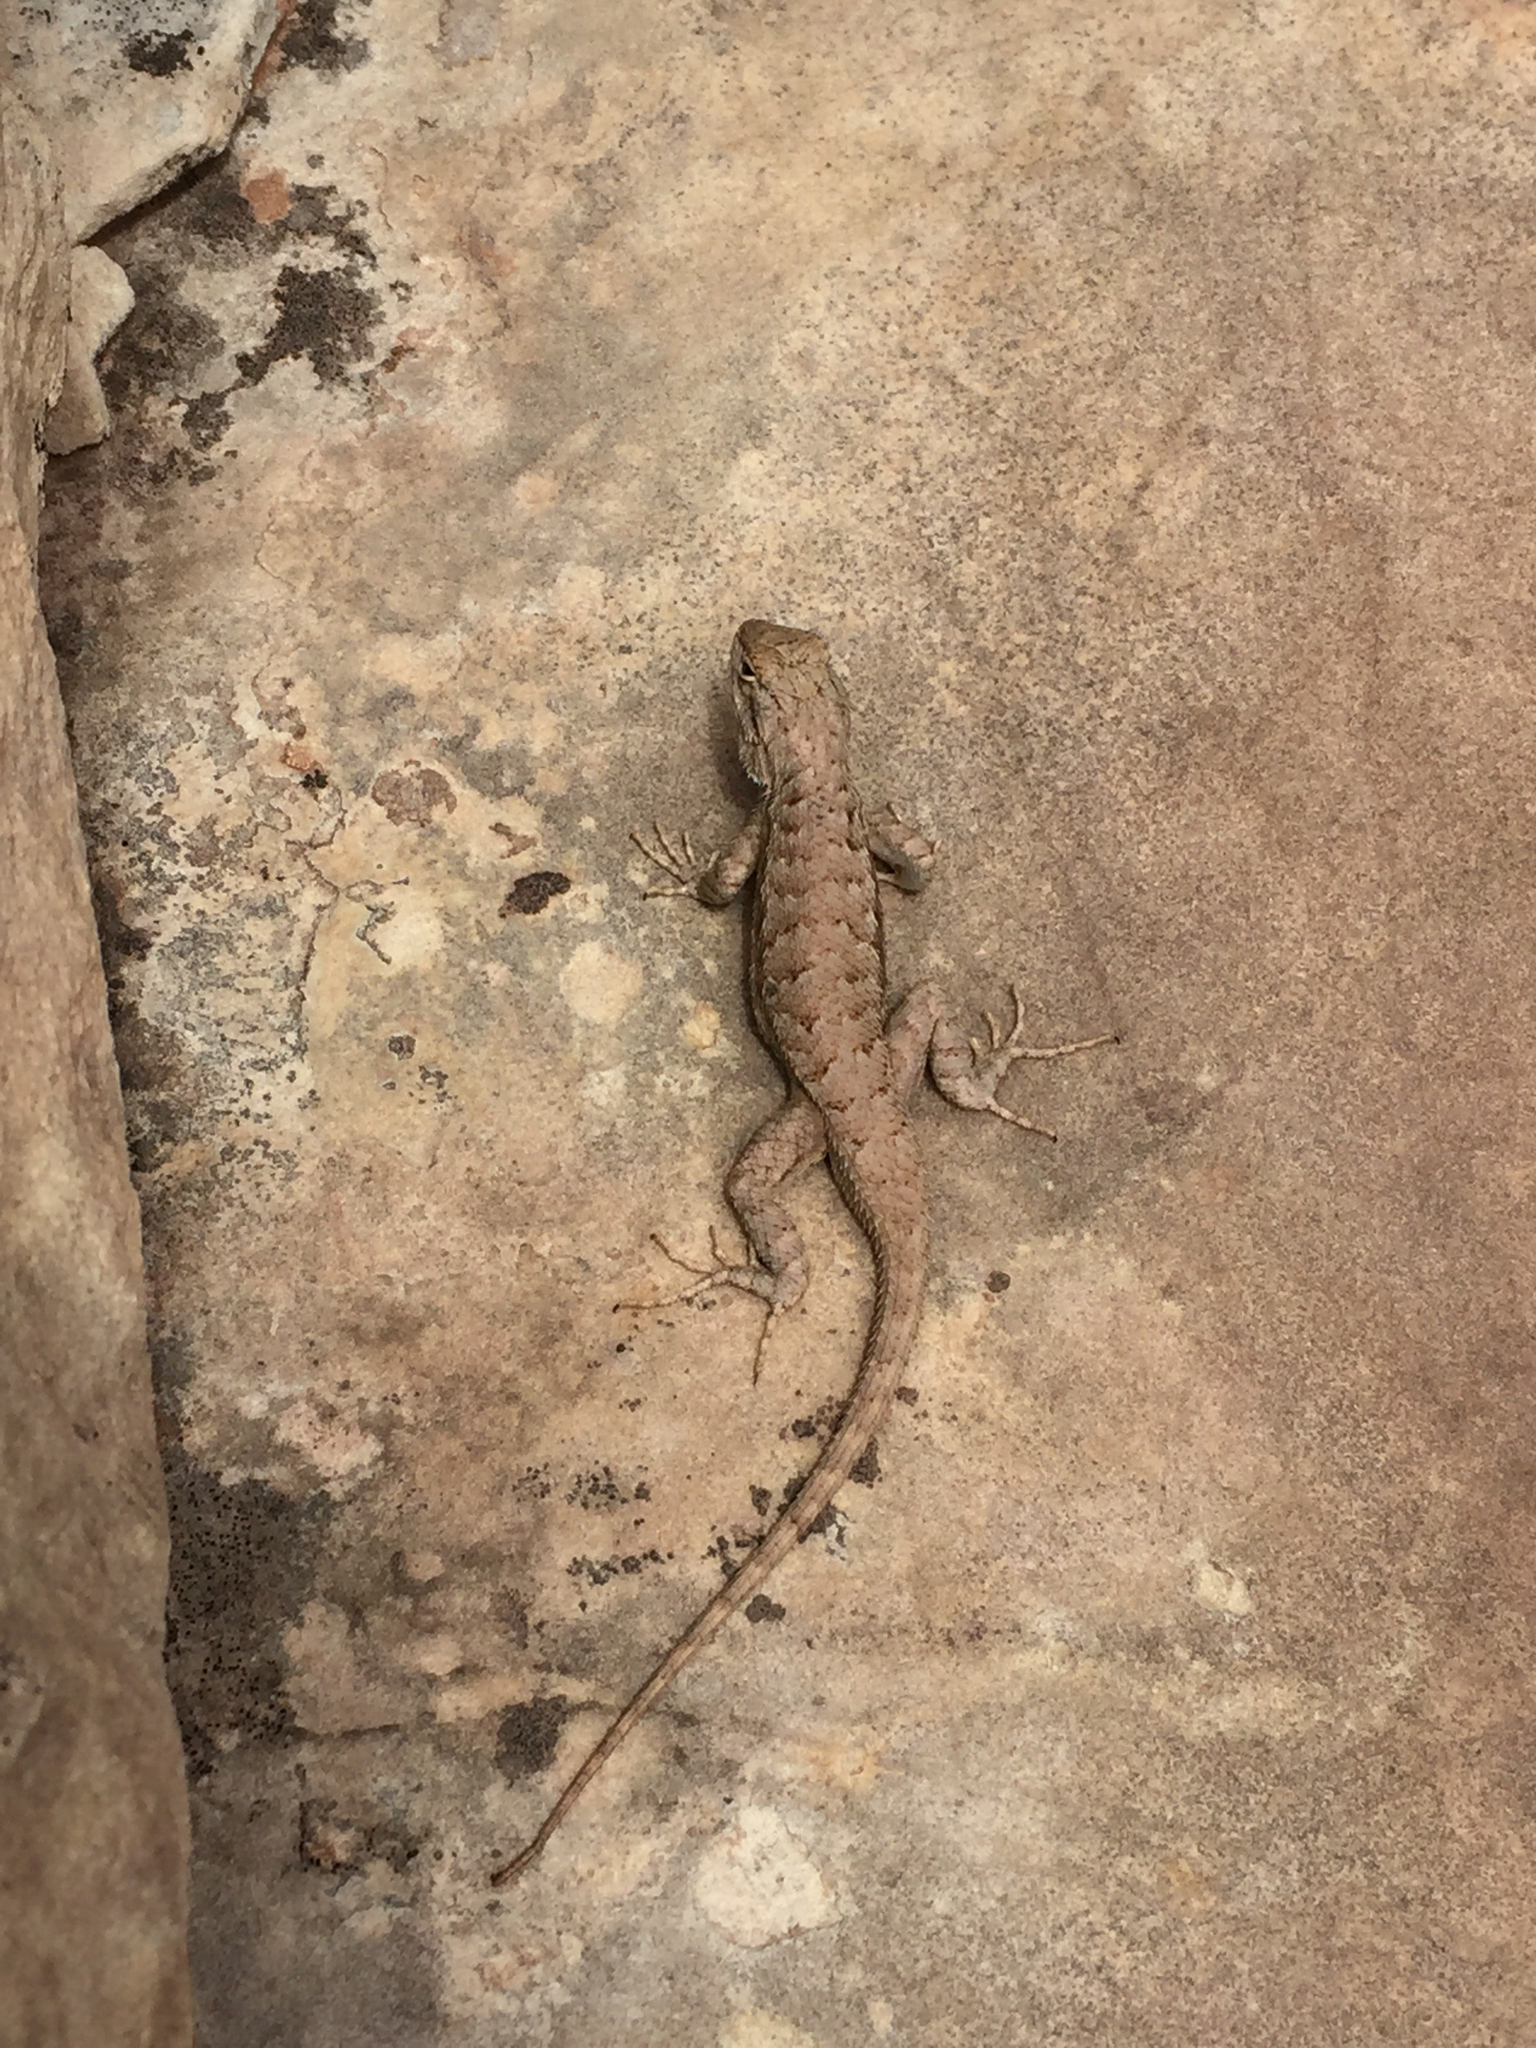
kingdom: Animalia
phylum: Chordata
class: Squamata
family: Phrynosomatidae
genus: Sceloporus
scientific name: Sceloporus tristichus
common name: Plateau fence lizard
